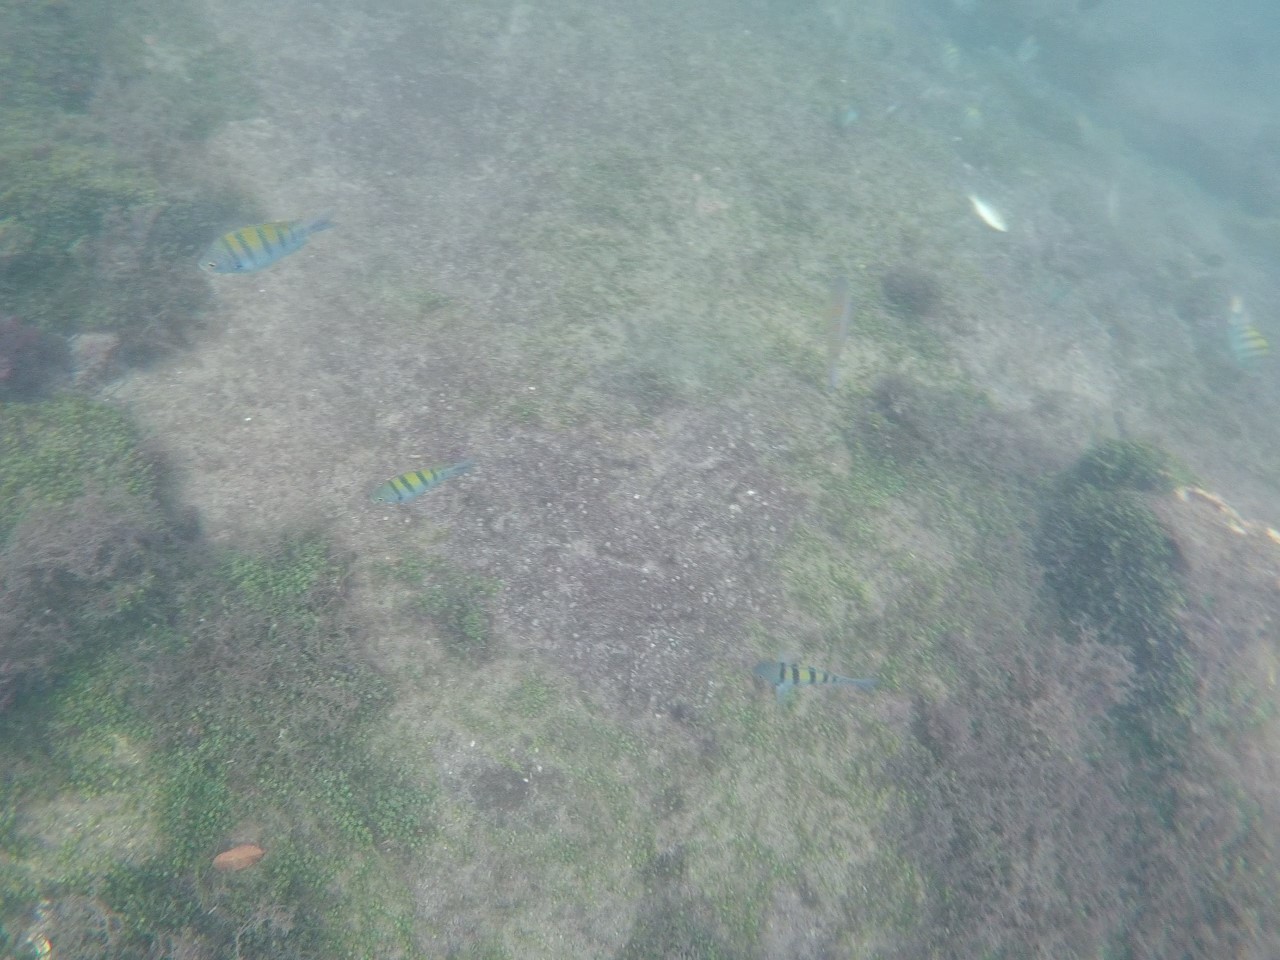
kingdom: Animalia
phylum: Chordata
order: Perciformes
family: Pomacentridae
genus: Abudefduf
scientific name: Abudefduf troschelii
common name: Panamic sergeant major
